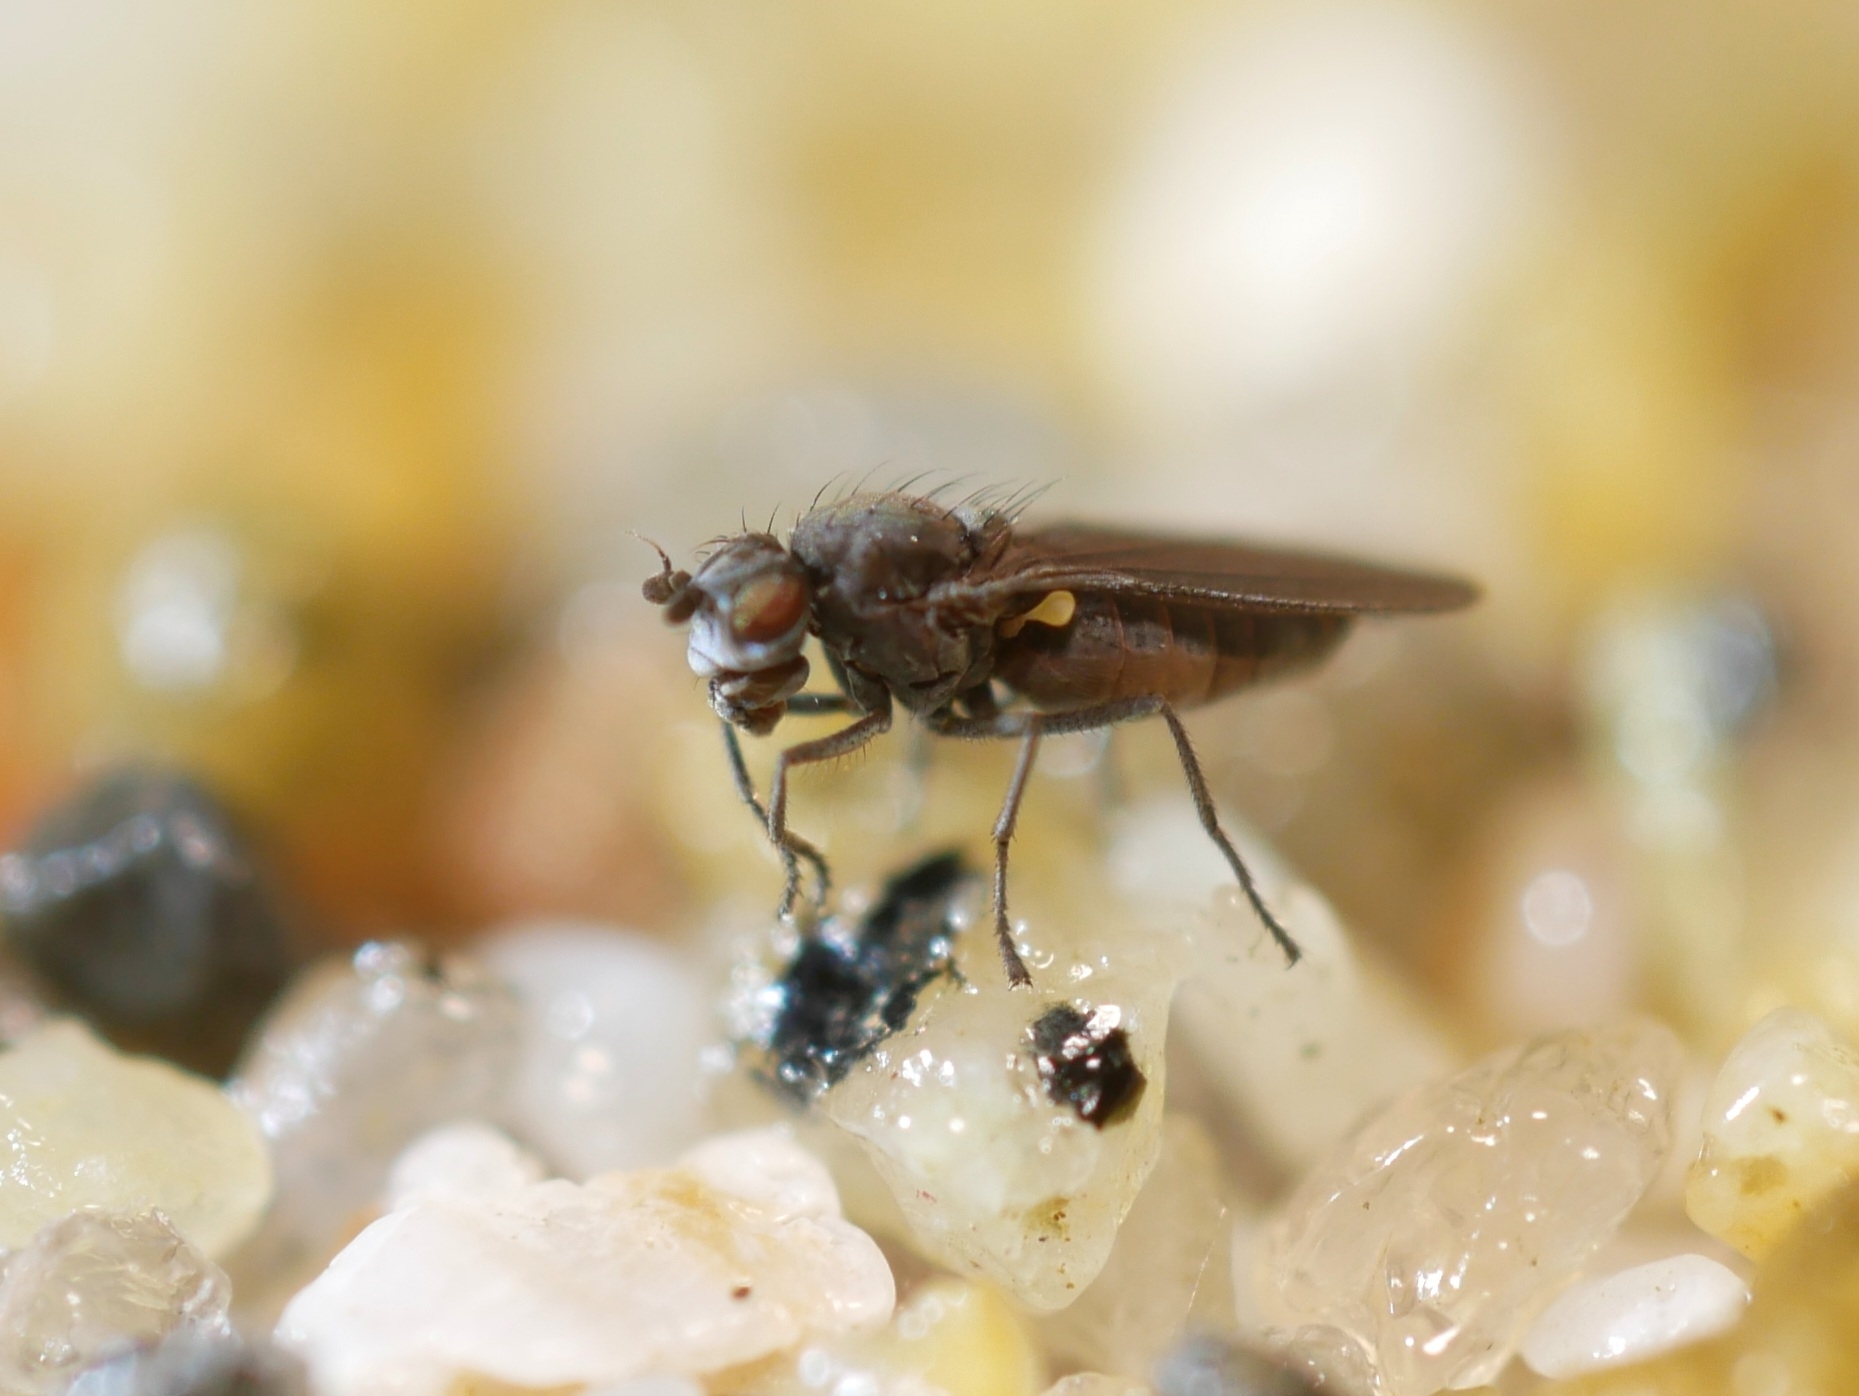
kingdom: Animalia
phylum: Arthropoda
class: Insecta
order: Diptera
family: Canacidae
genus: Canaceoides
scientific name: Canaceoides nudatus
